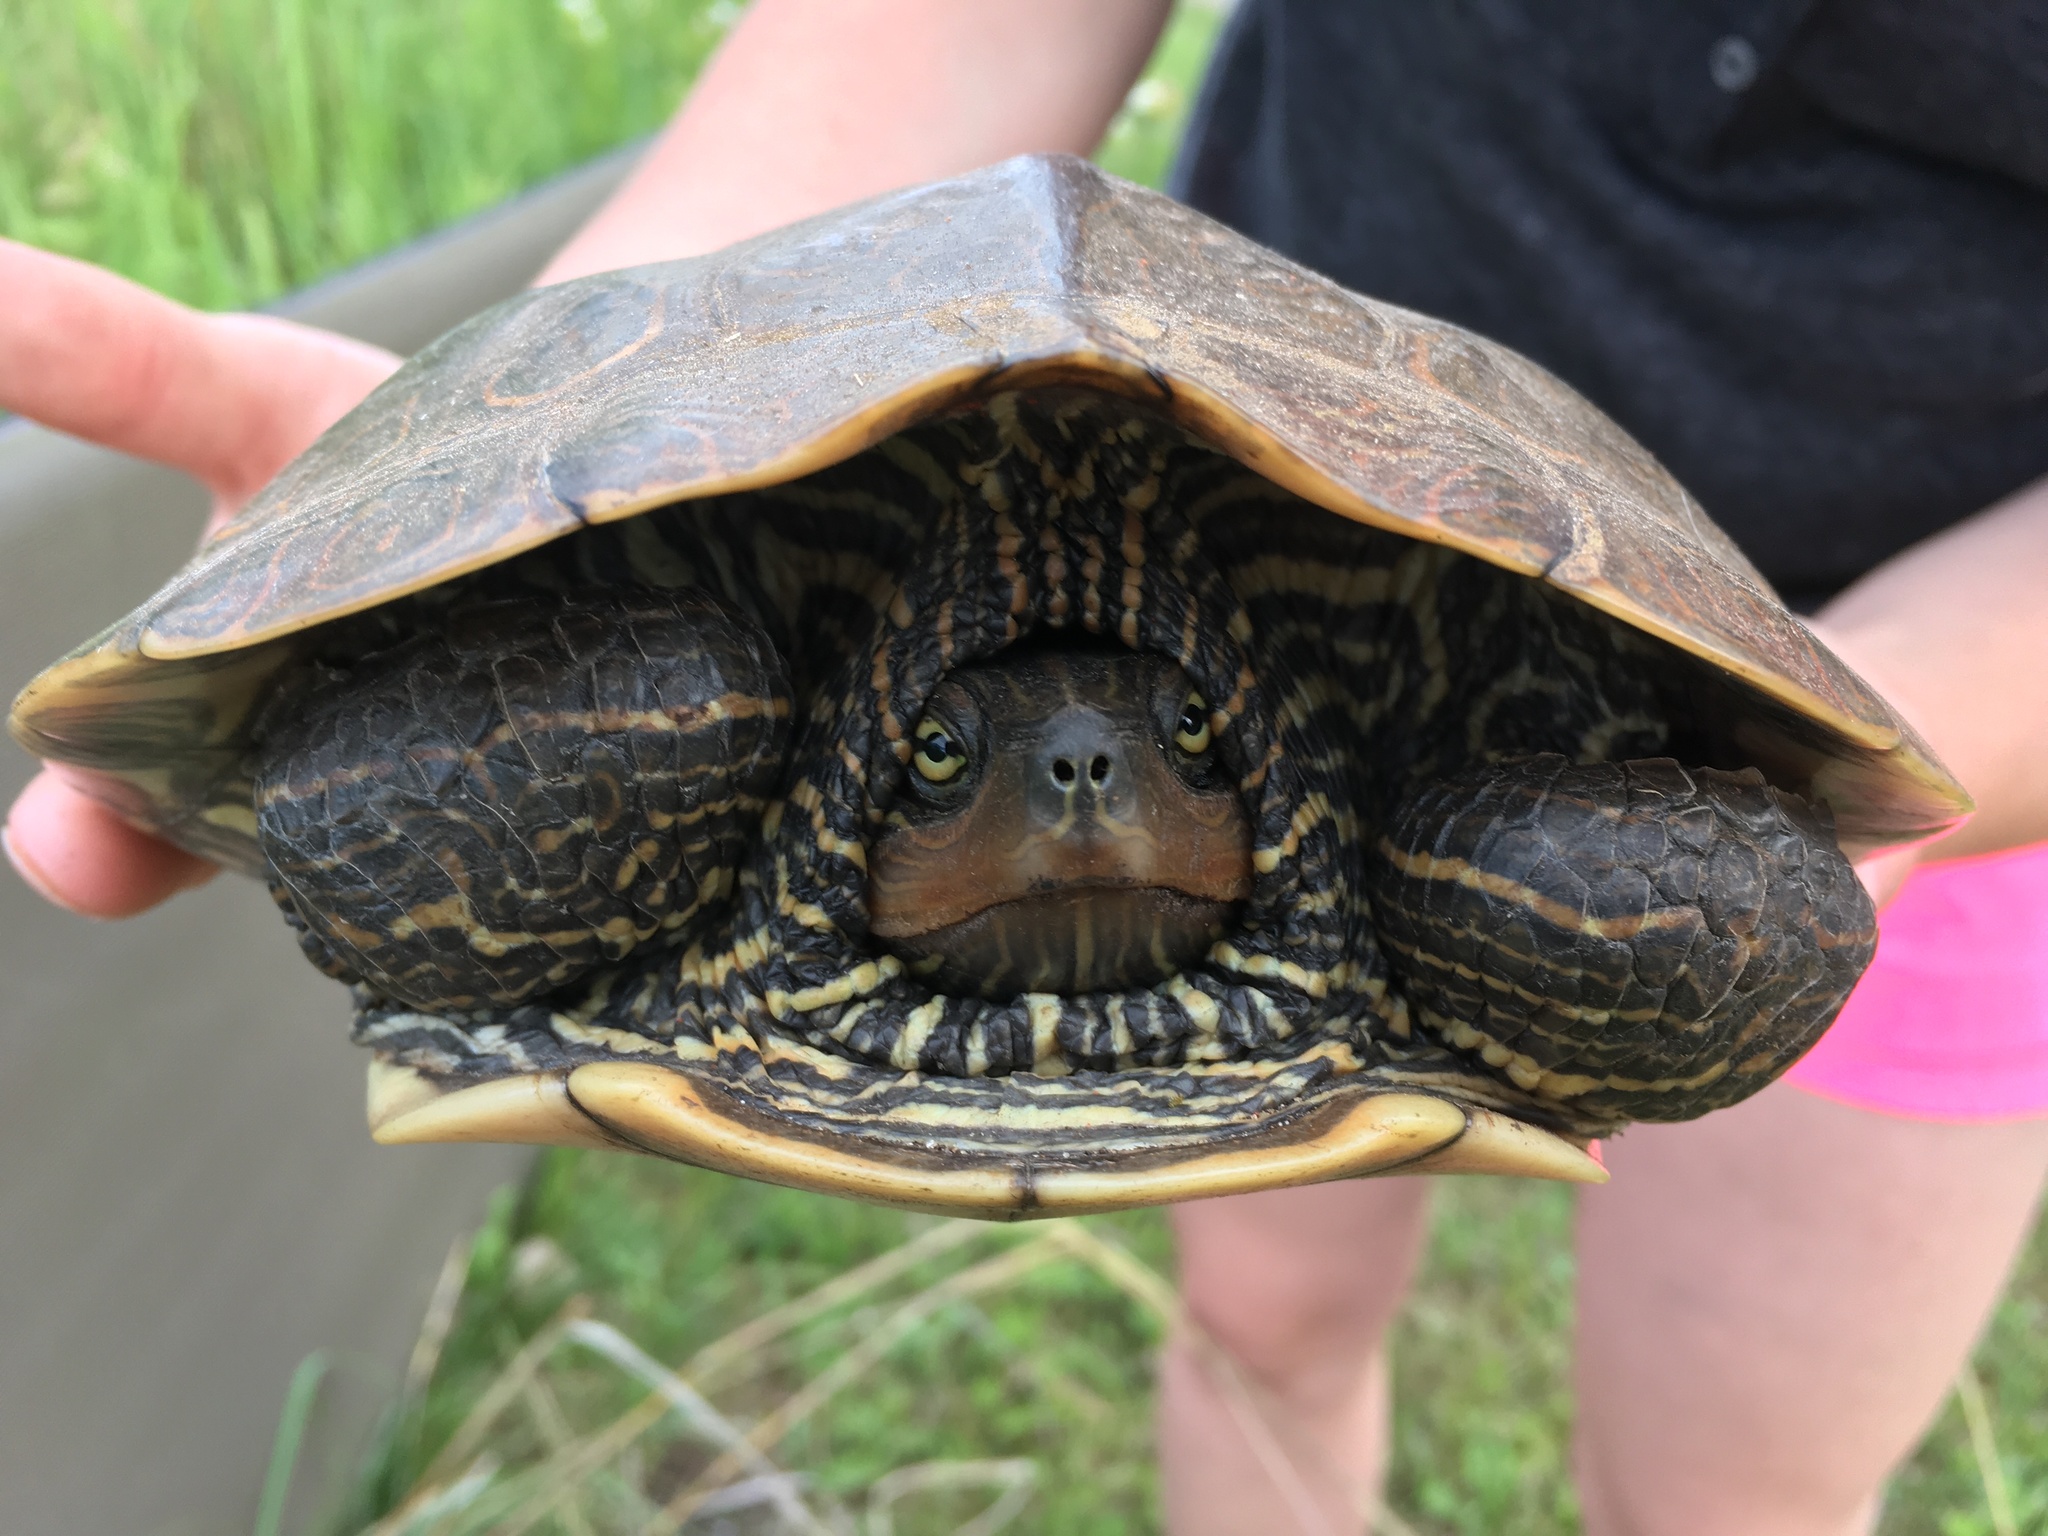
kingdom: Animalia
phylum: Chordata
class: Testudines
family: Emydidae
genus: Graptemys
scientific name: Graptemys geographica
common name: Common map turtle
